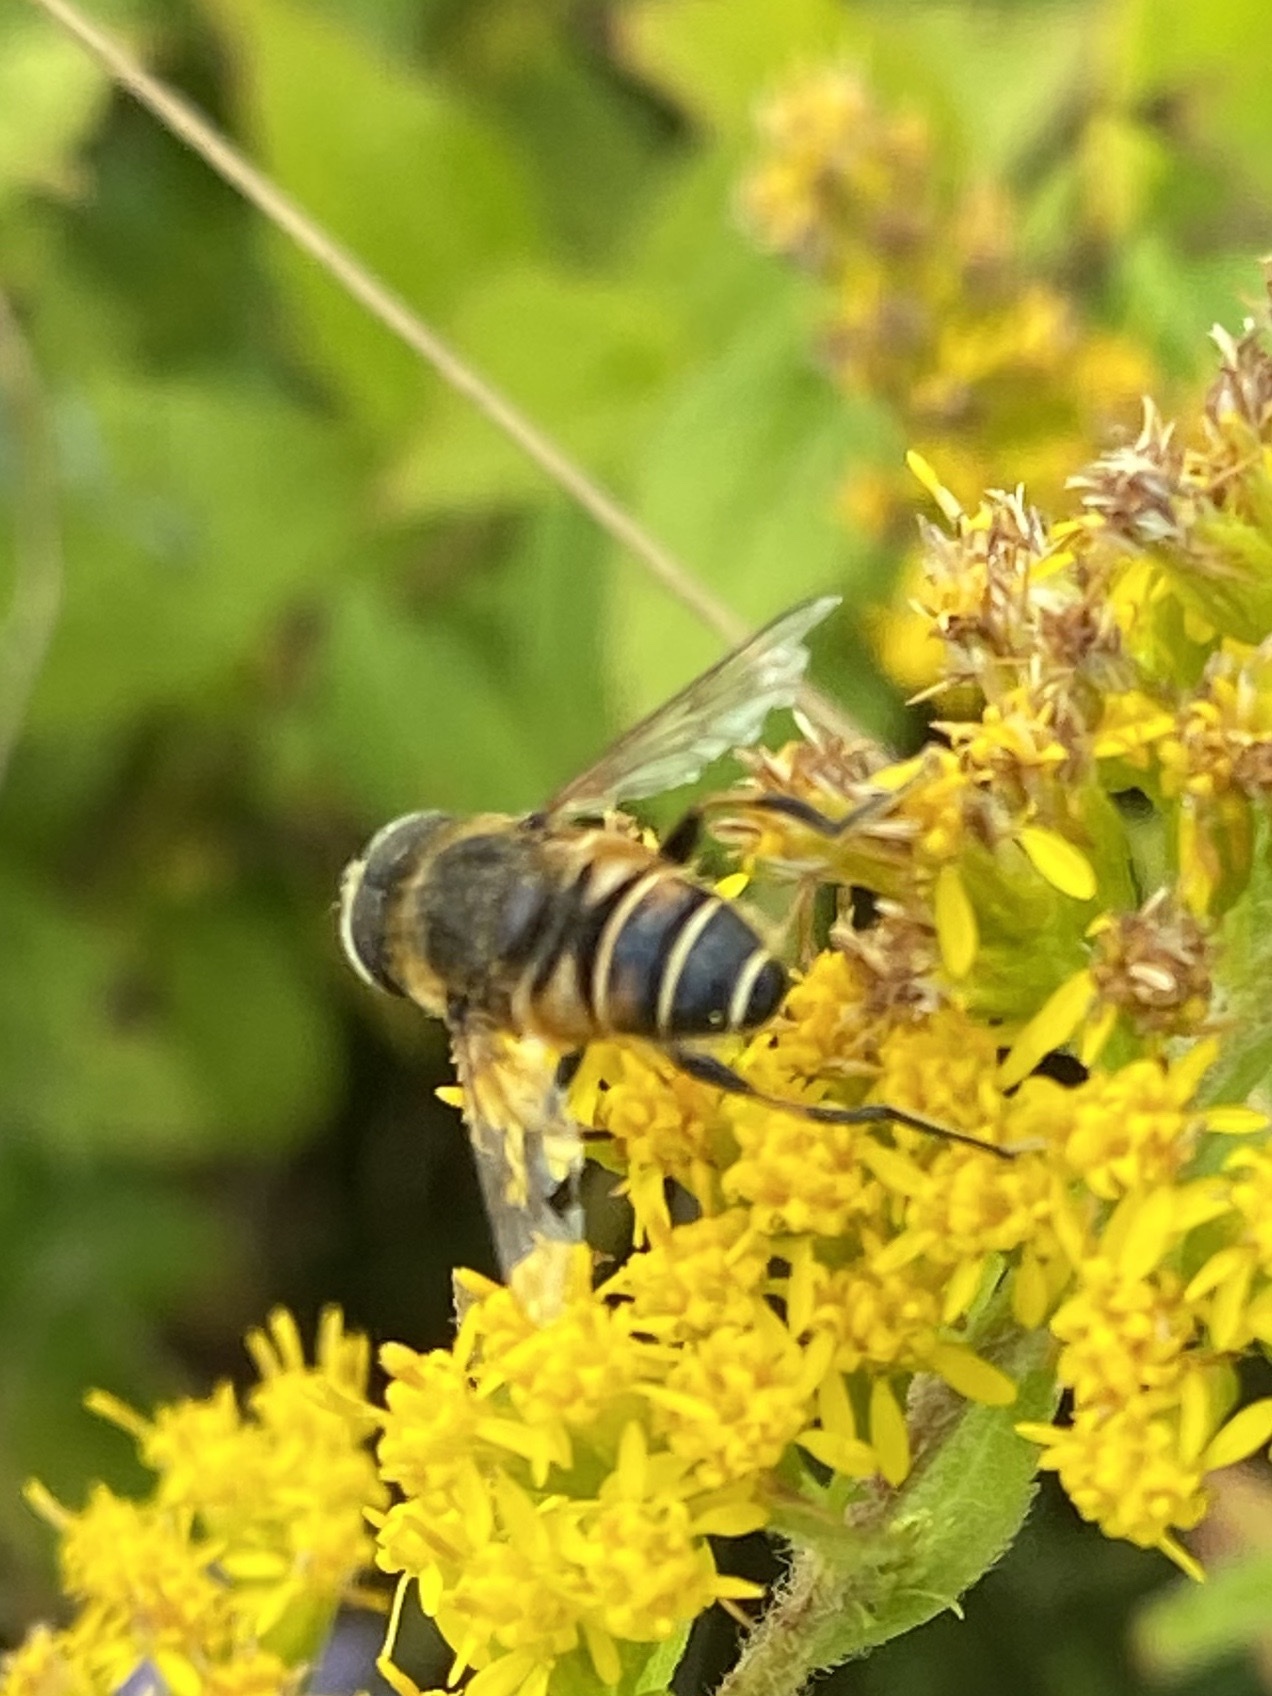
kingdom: Animalia
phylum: Arthropoda
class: Insecta
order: Diptera
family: Syrphidae
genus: Eristalis
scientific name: Eristalis nemorum
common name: Orange-spined drone fly
